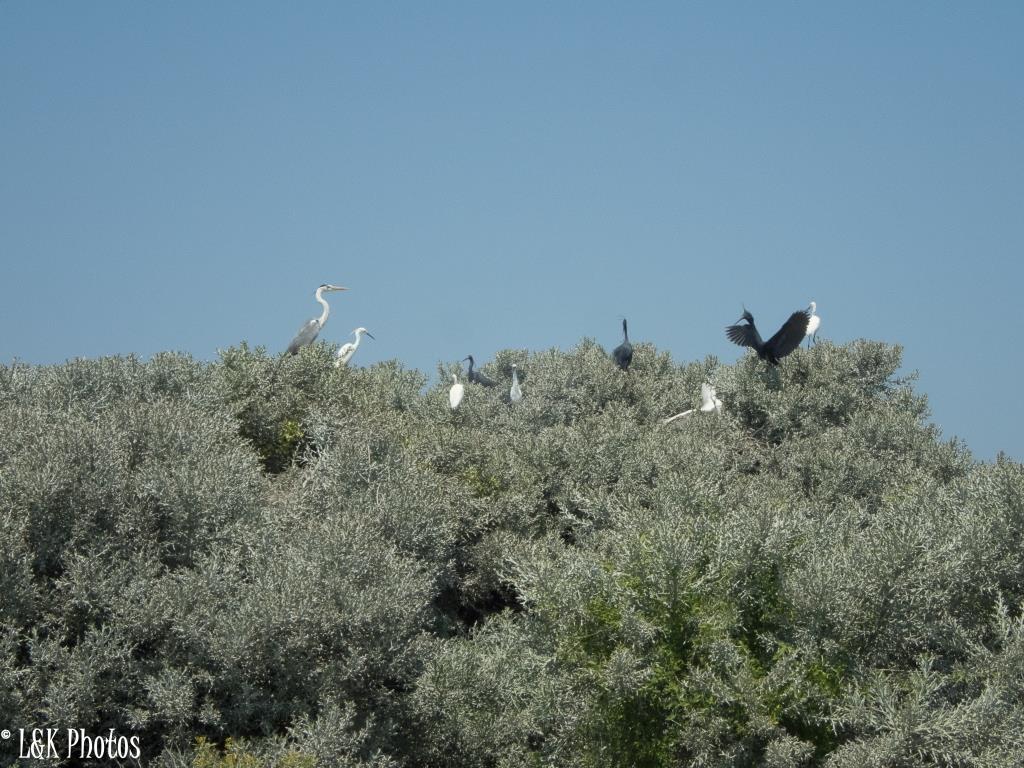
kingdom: Animalia
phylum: Chordata
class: Aves
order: Pelecaniformes
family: Ardeidae
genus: Egretta
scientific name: Egretta dimorpha
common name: Dimorphic egret
